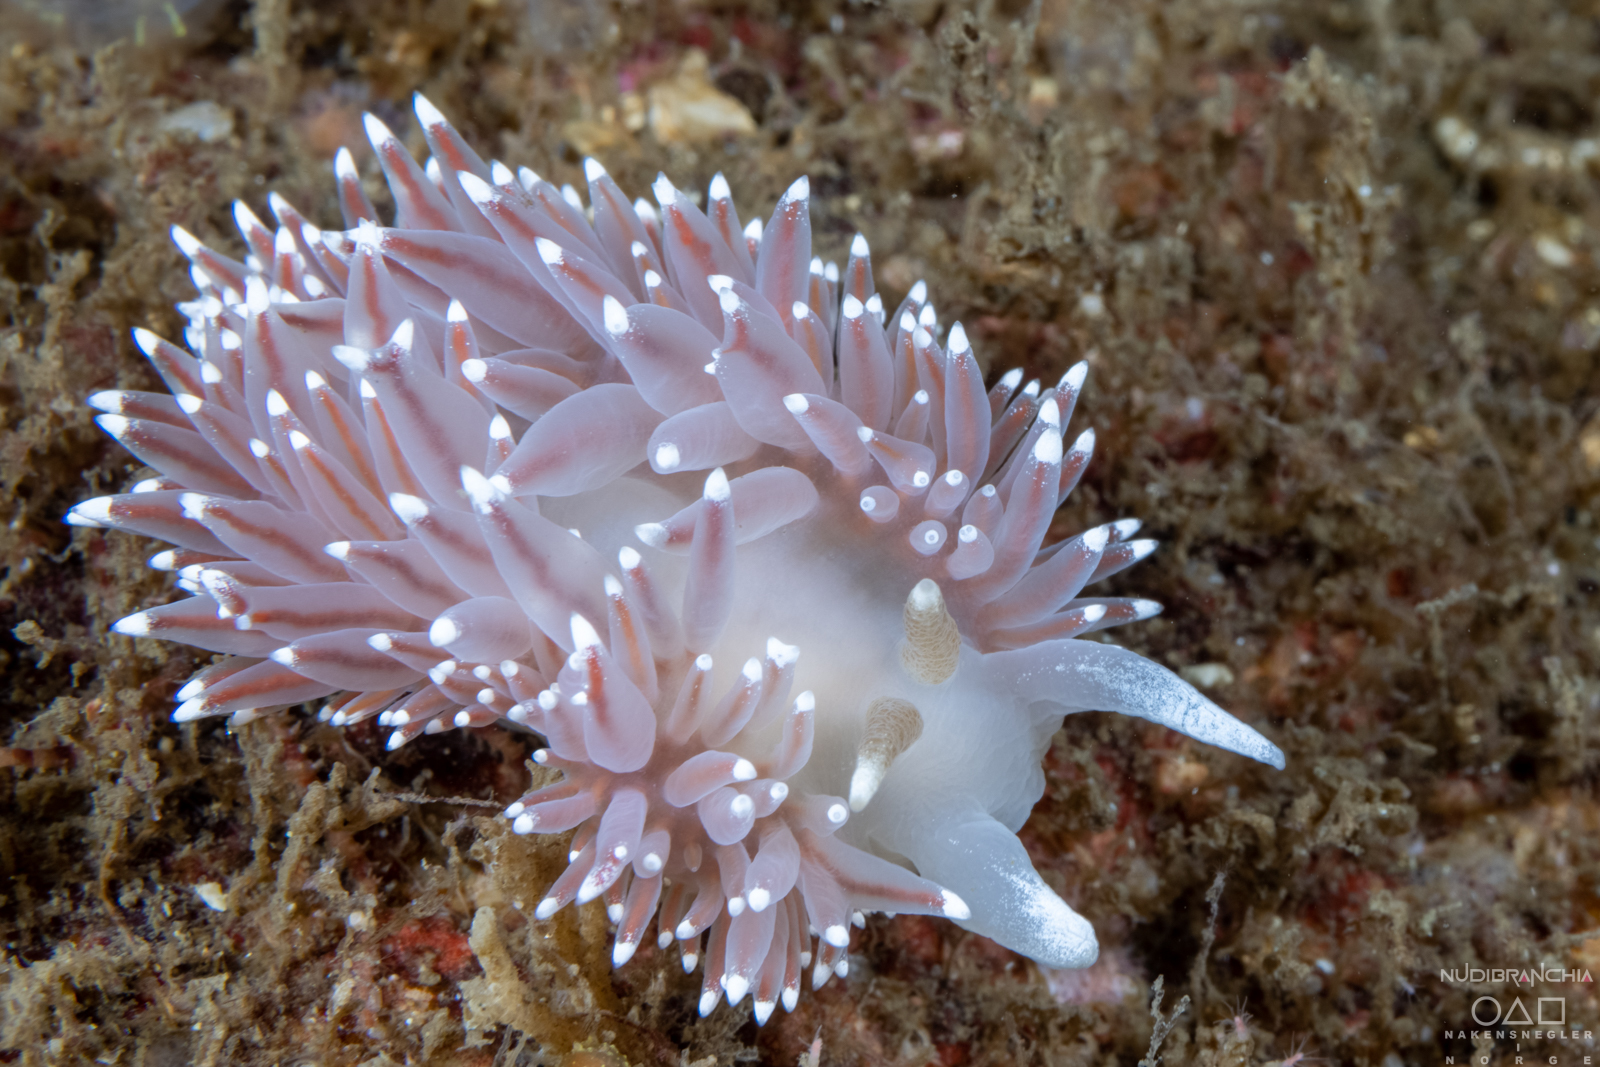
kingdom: Animalia
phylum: Mollusca
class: Gastropoda
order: Nudibranchia
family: Coryphellidae
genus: Coryphella
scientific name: Coryphella nobilis
